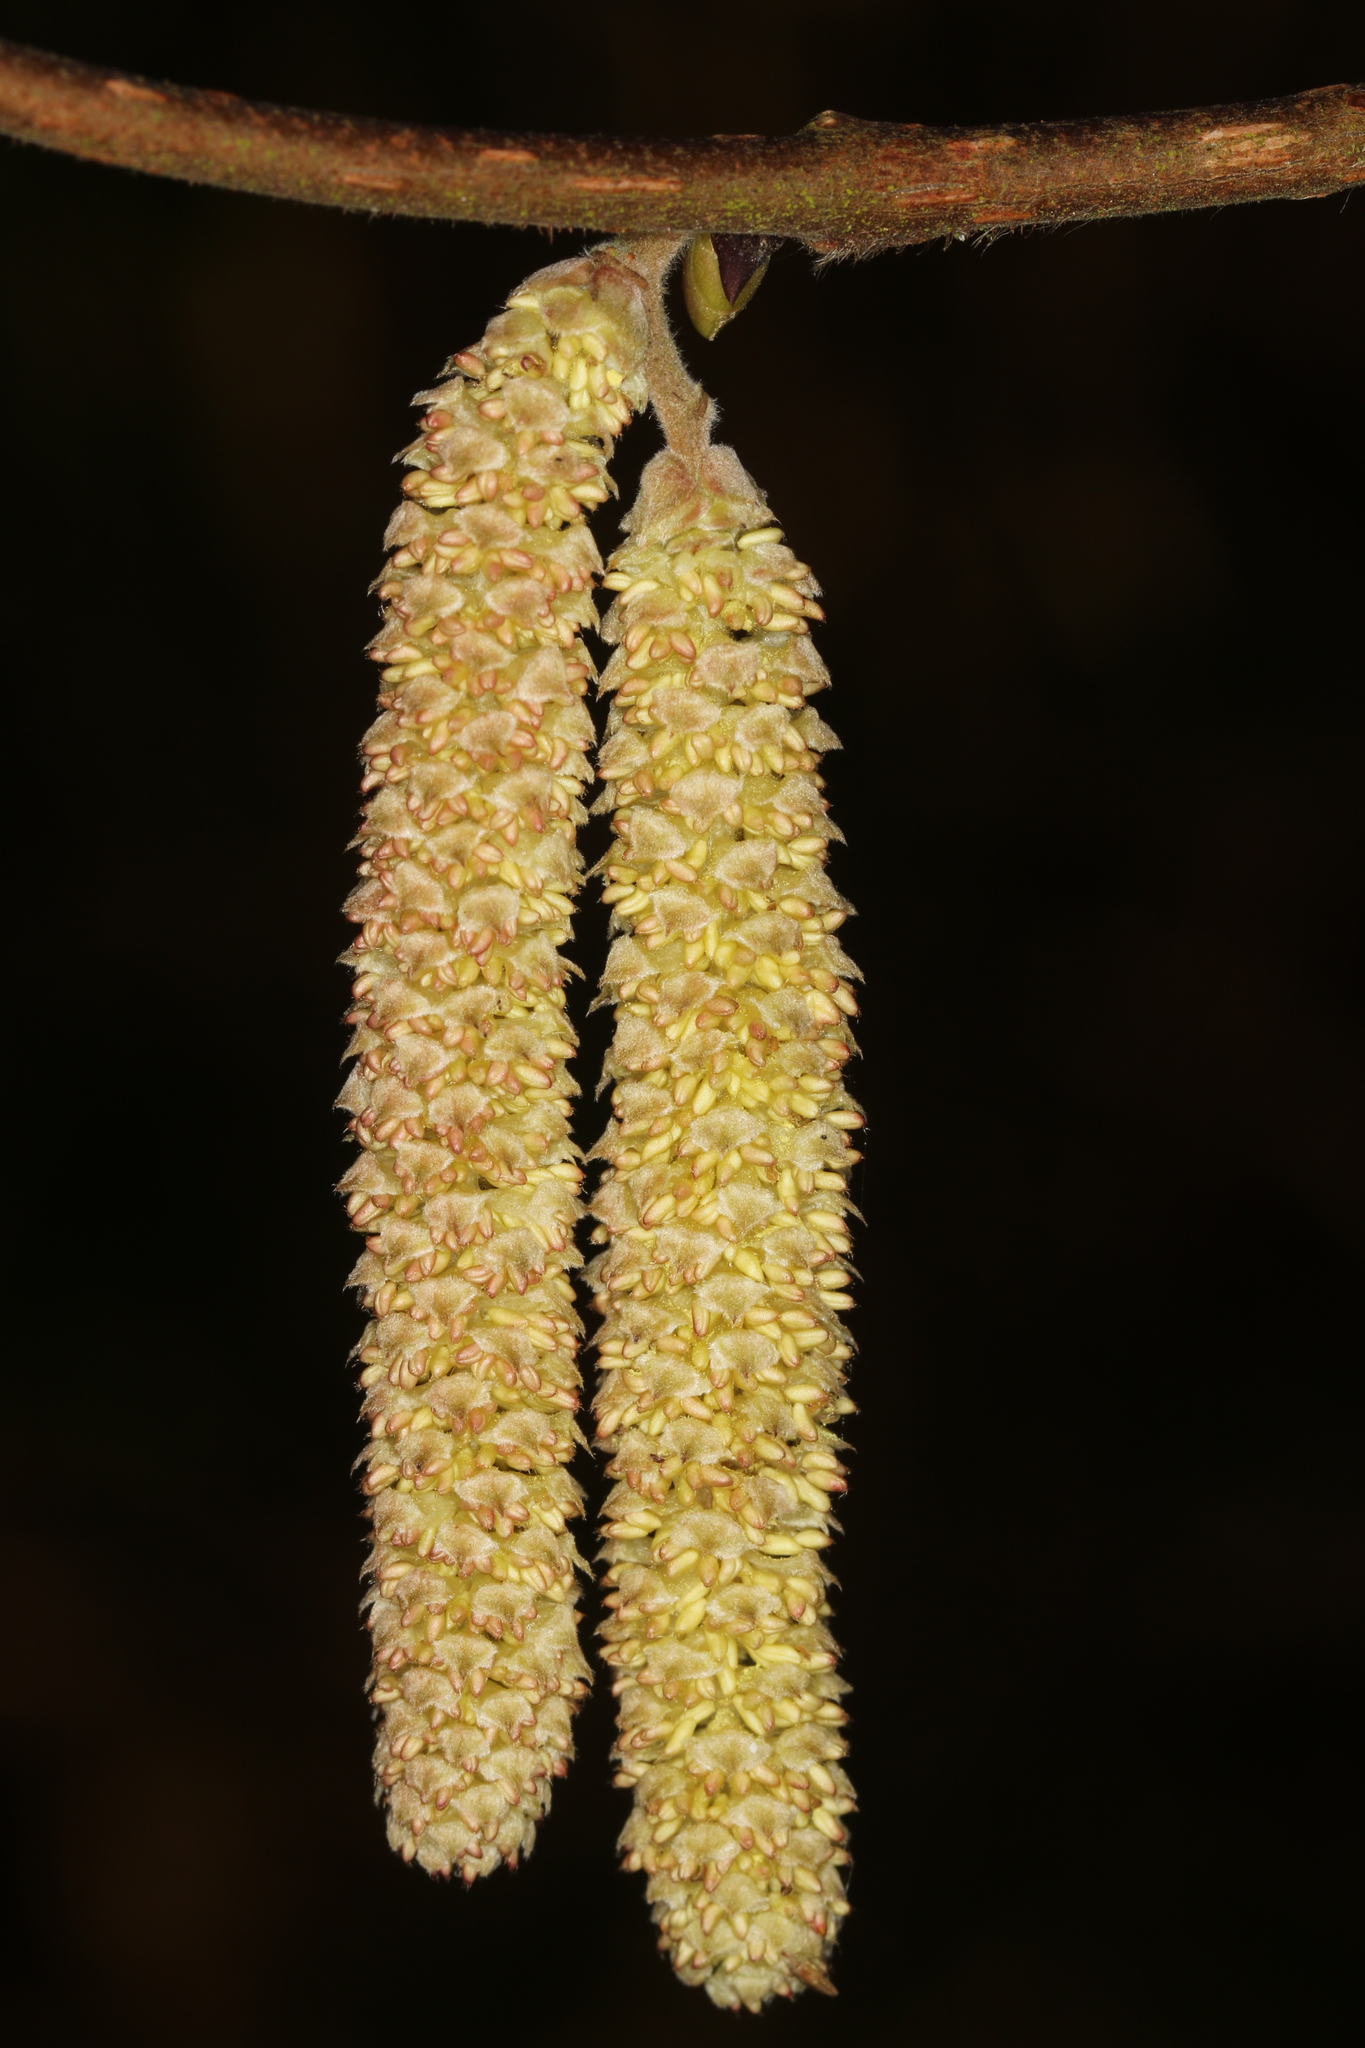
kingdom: Plantae
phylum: Tracheophyta
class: Magnoliopsida
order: Fagales
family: Betulaceae
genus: Corylus
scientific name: Corylus avellana
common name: European hazel
